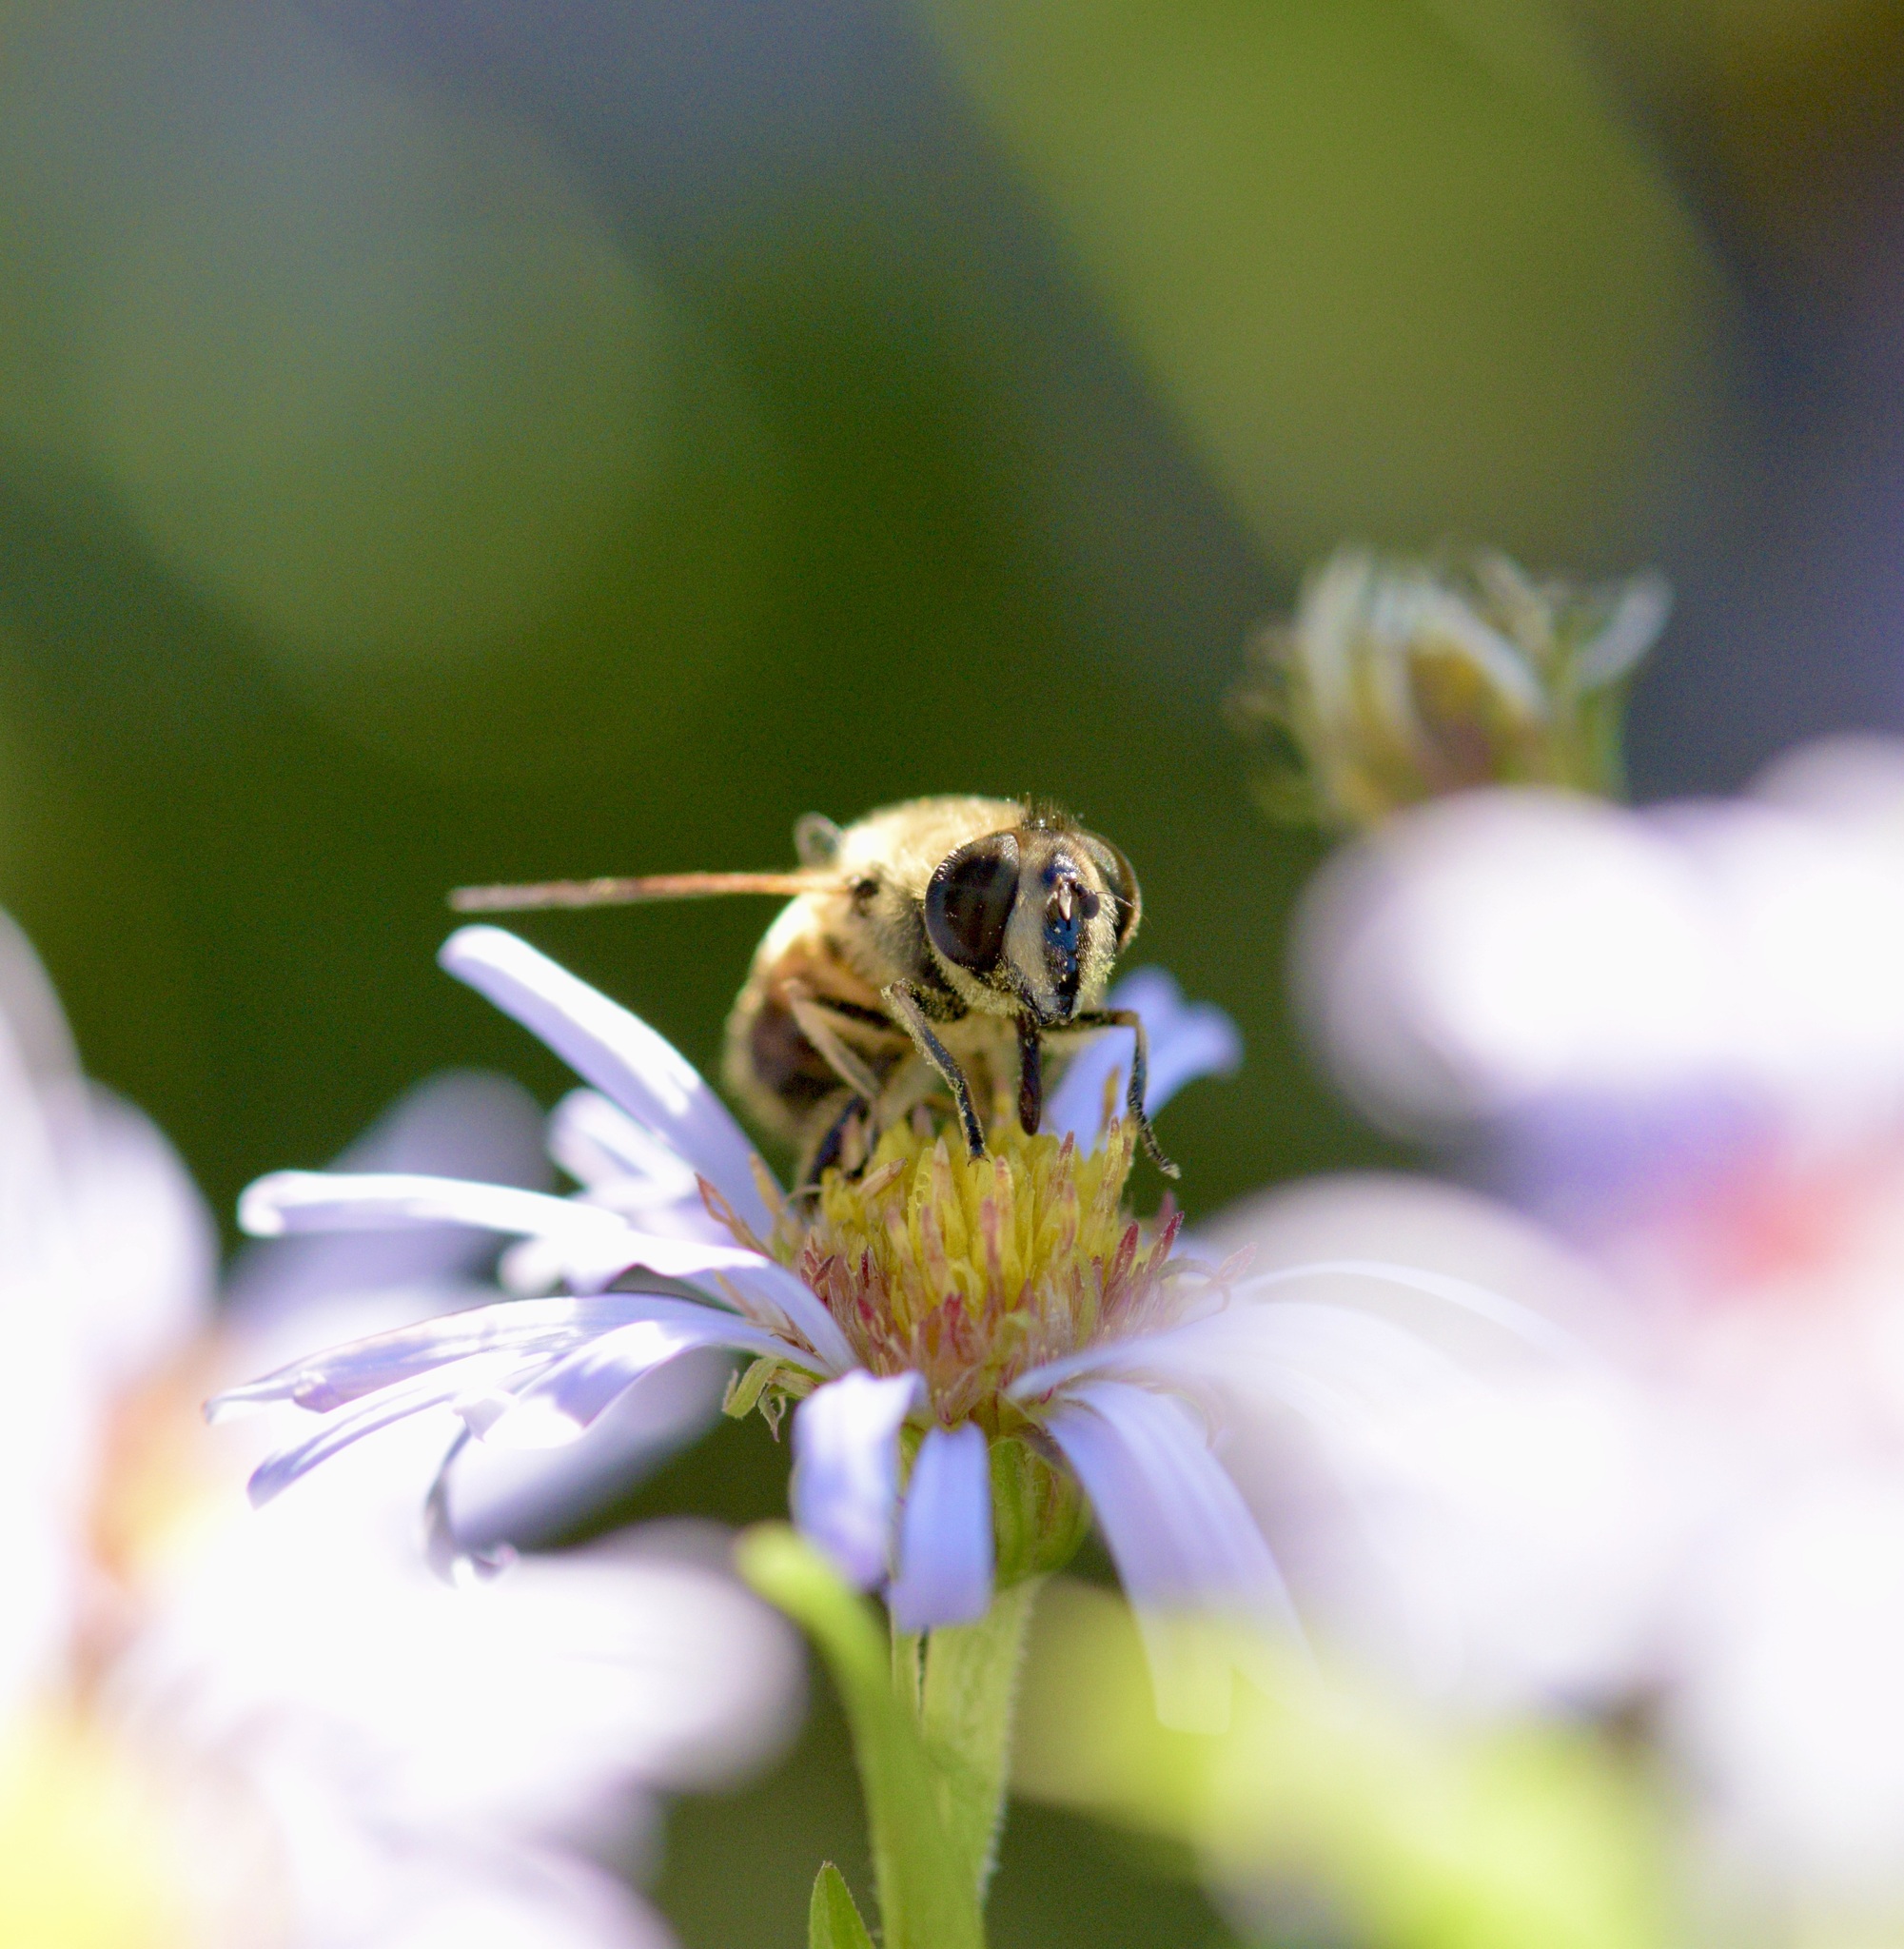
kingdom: Animalia
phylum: Arthropoda
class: Insecta
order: Diptera
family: Syrphidae
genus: Eristalis
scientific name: Eristalis tenax
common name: Drone fly
